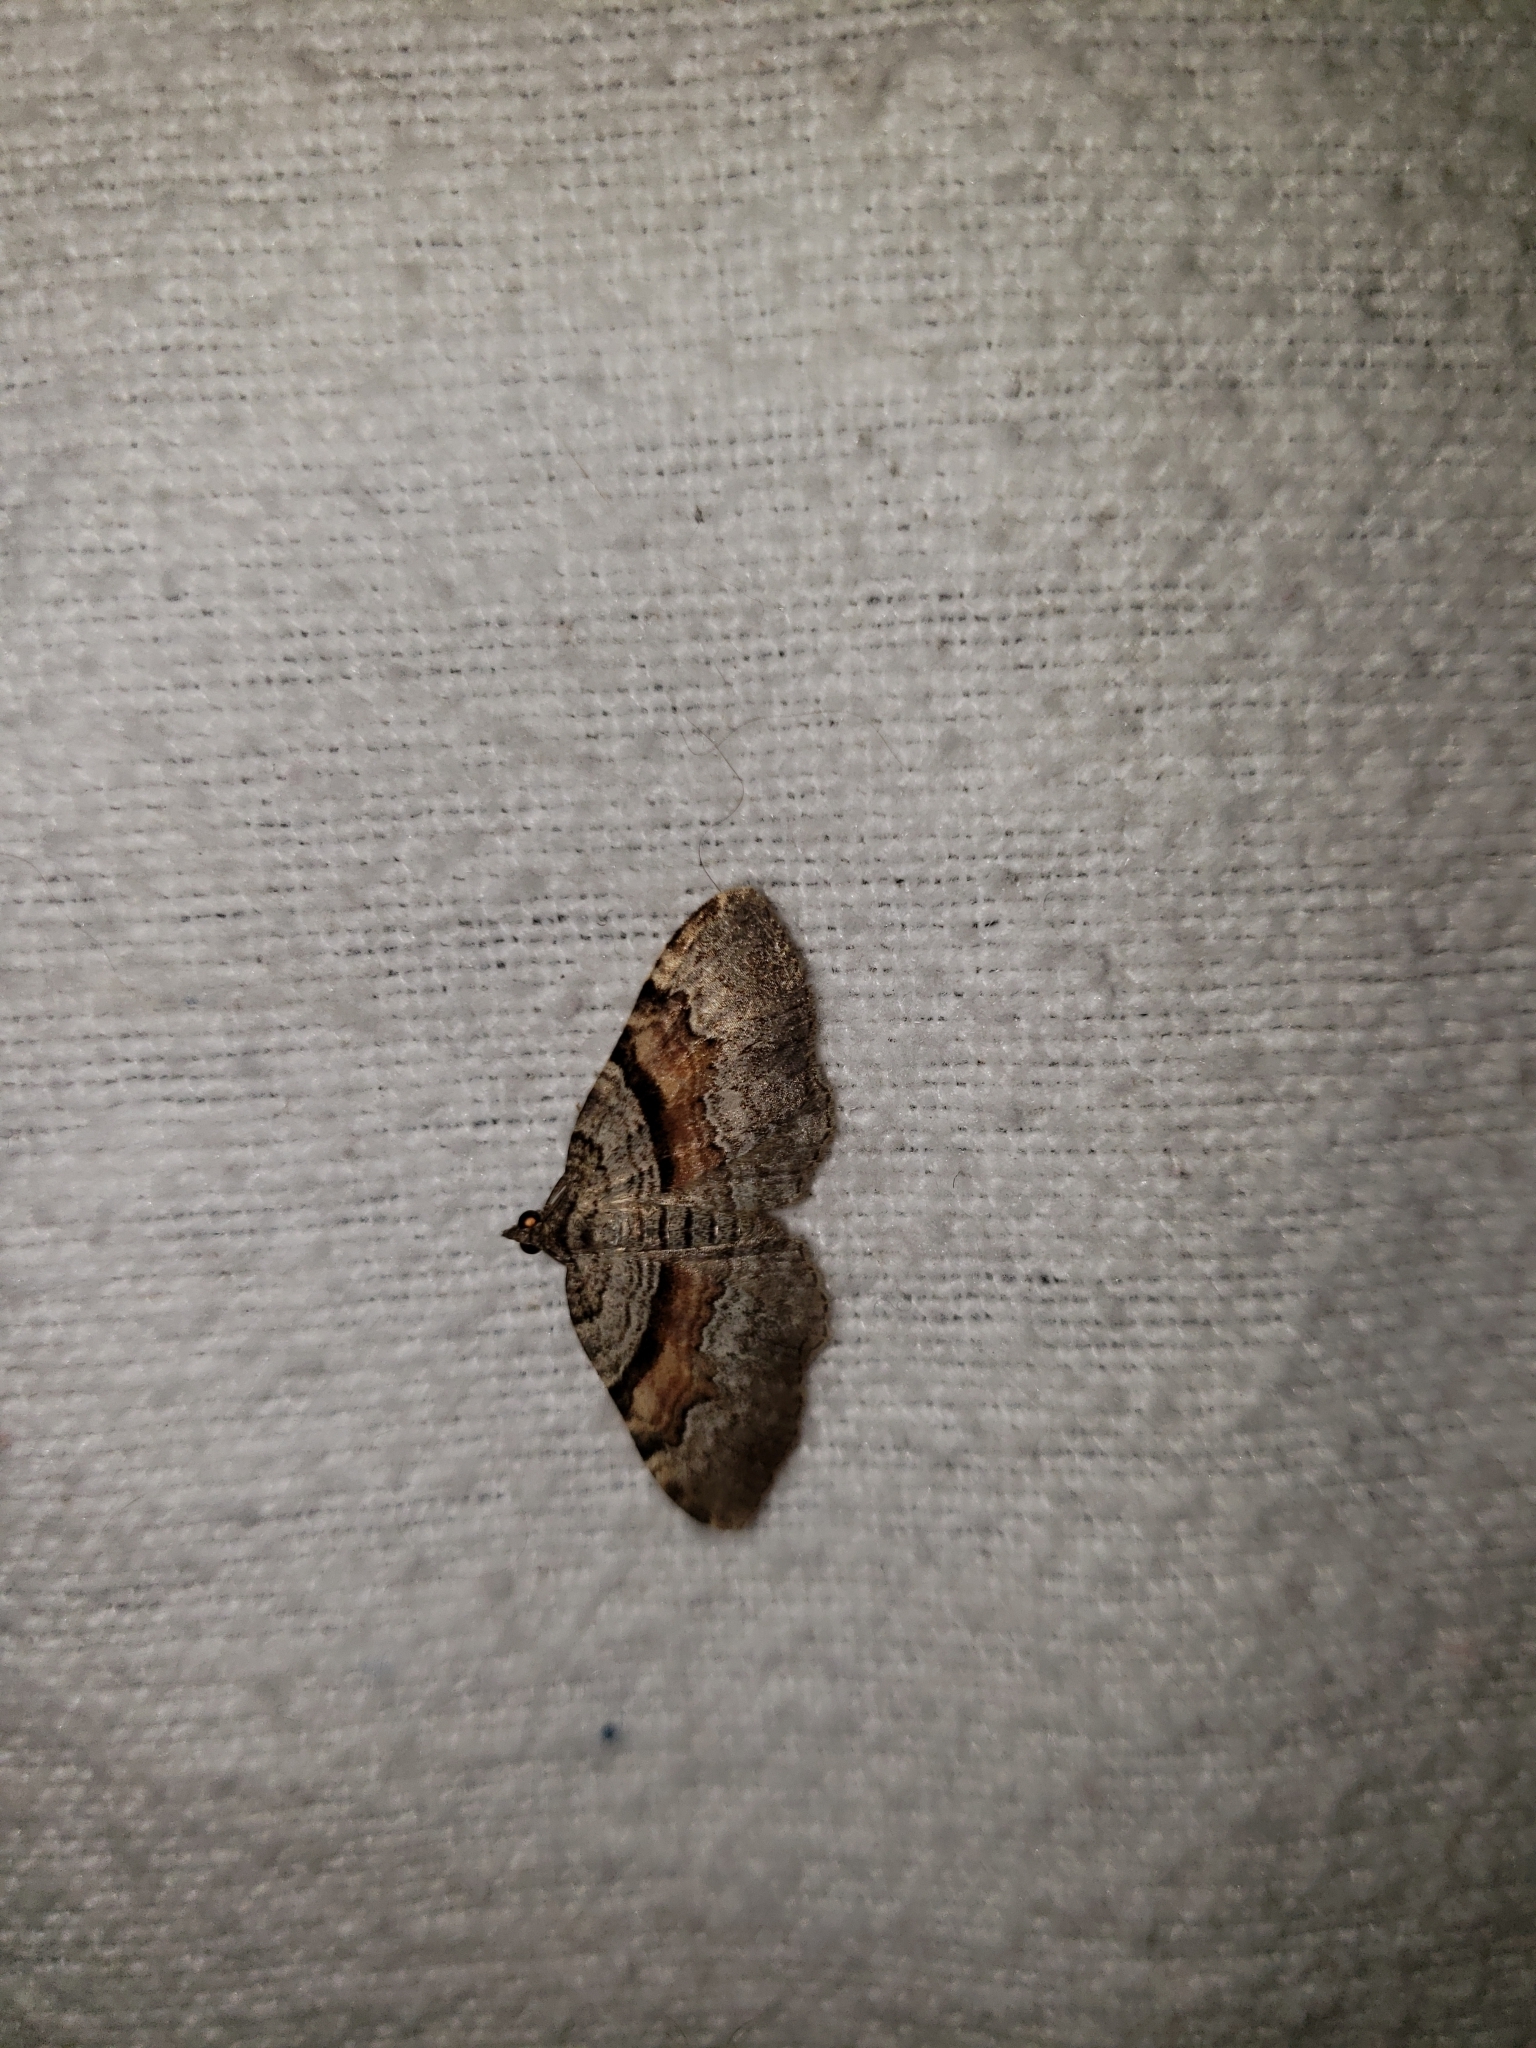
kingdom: Animalia
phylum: Arthropoda
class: Insecta
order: Lepidoptera
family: Geometridae
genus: Xanthorhoe
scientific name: Xanthorhoe labradorensis
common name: Labrador carpet
